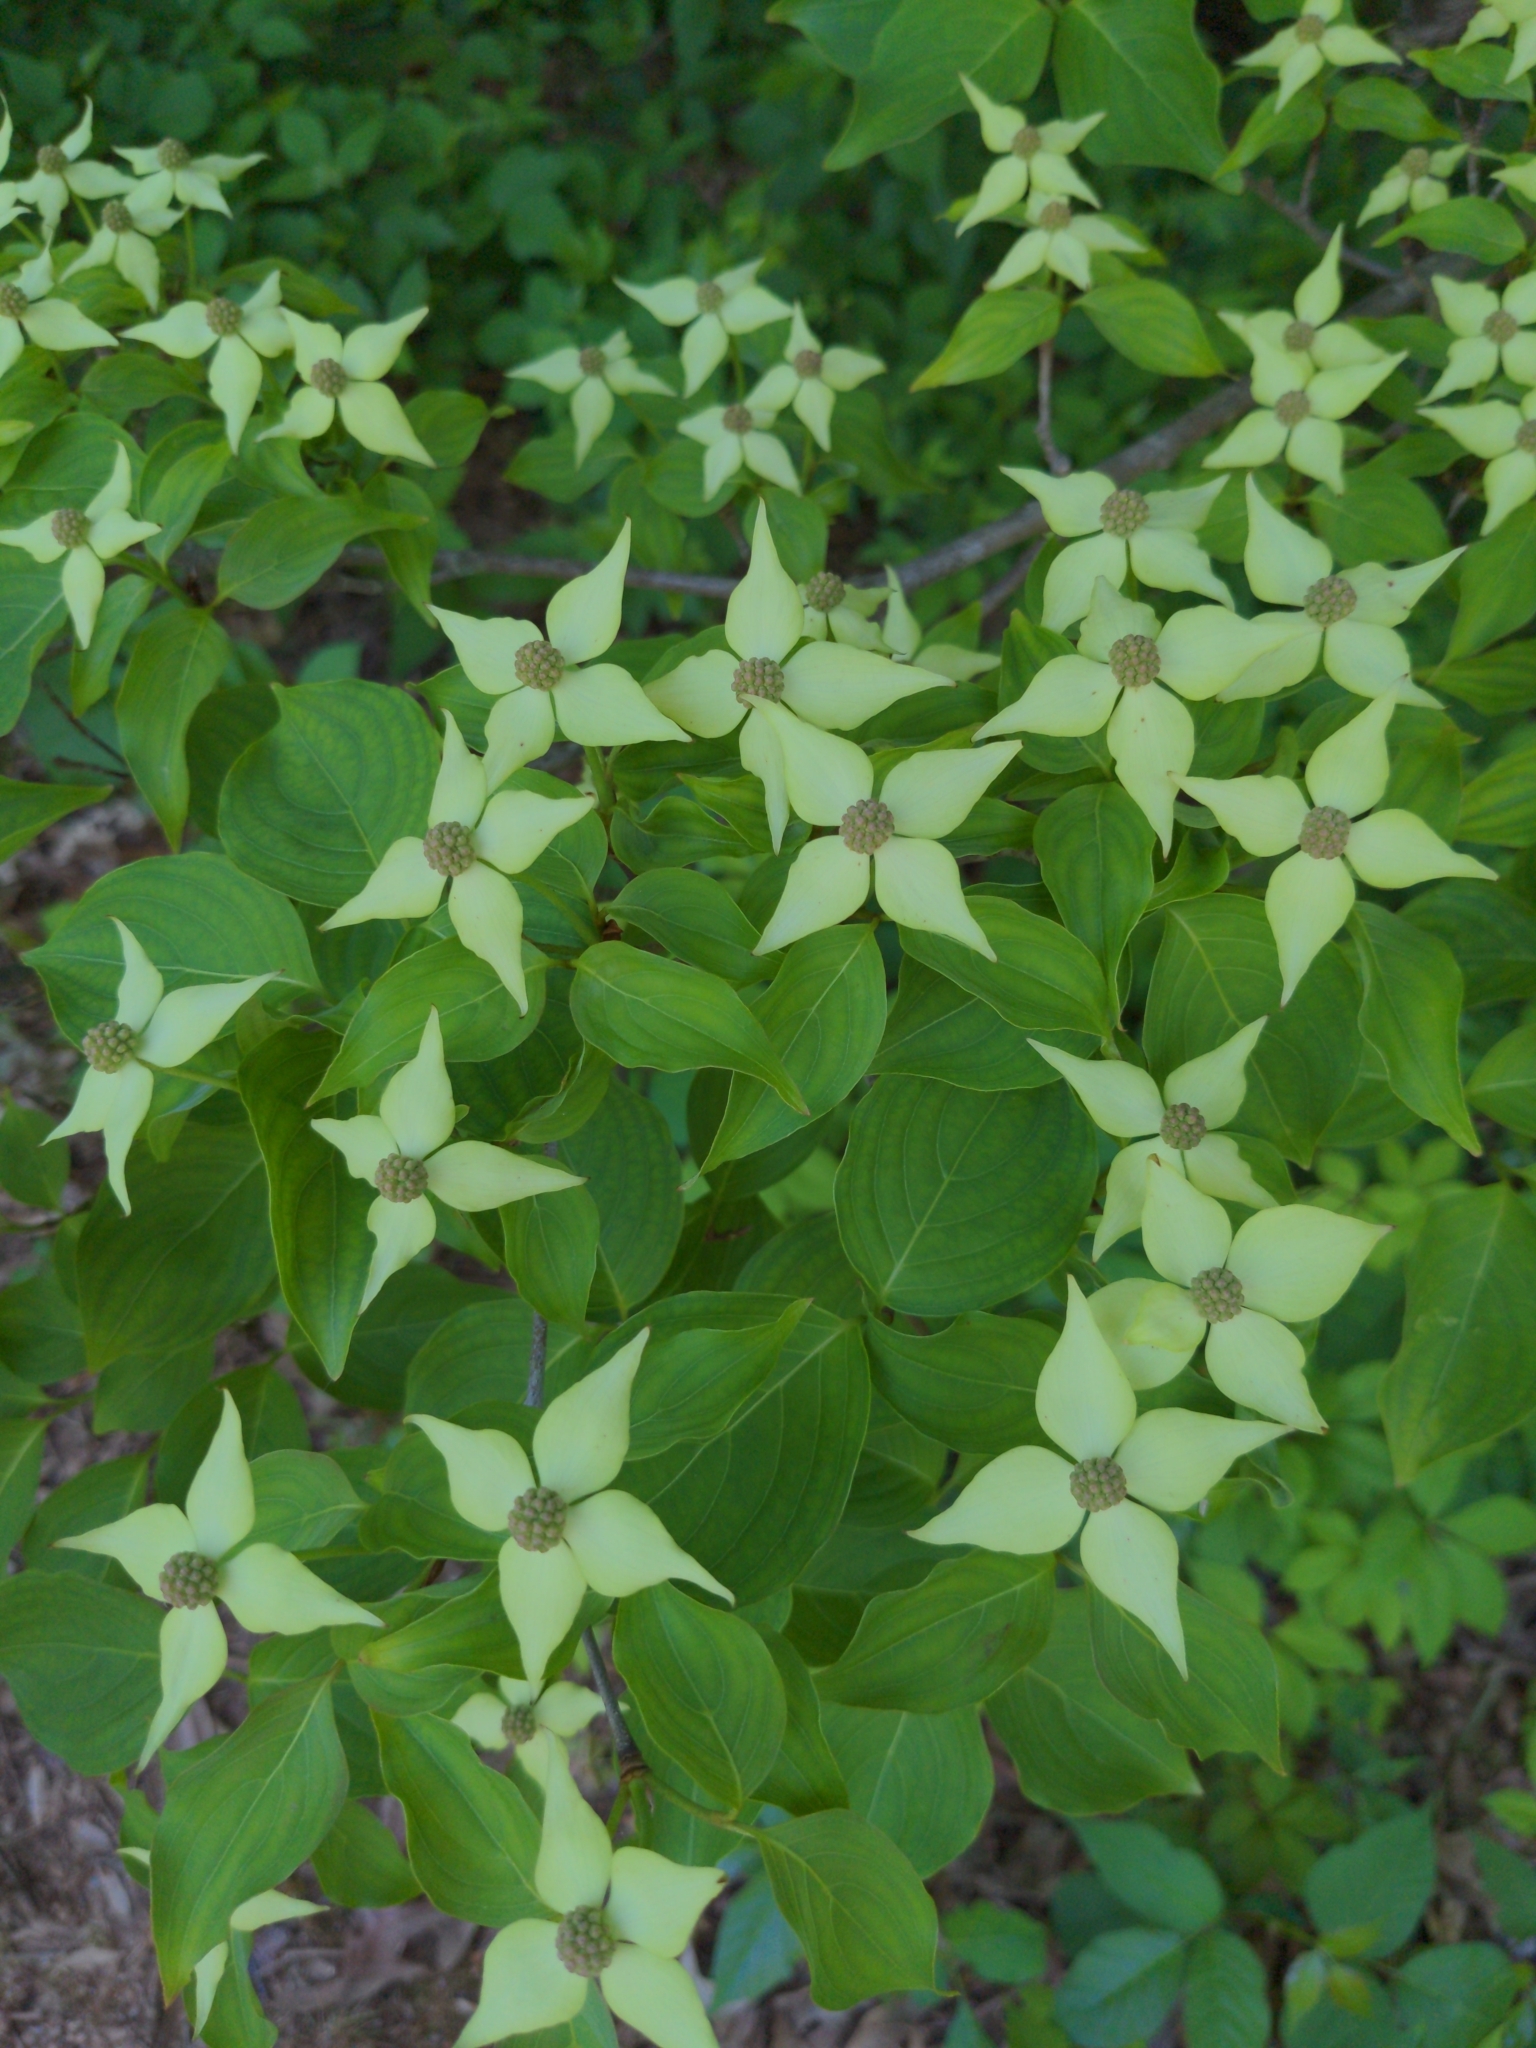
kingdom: Plantae
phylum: Tracheophyta
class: Magnoliopsida
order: Cornales
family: Cornaceae
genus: Cornus
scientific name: Cornus kousa
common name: Japanese dogwood
